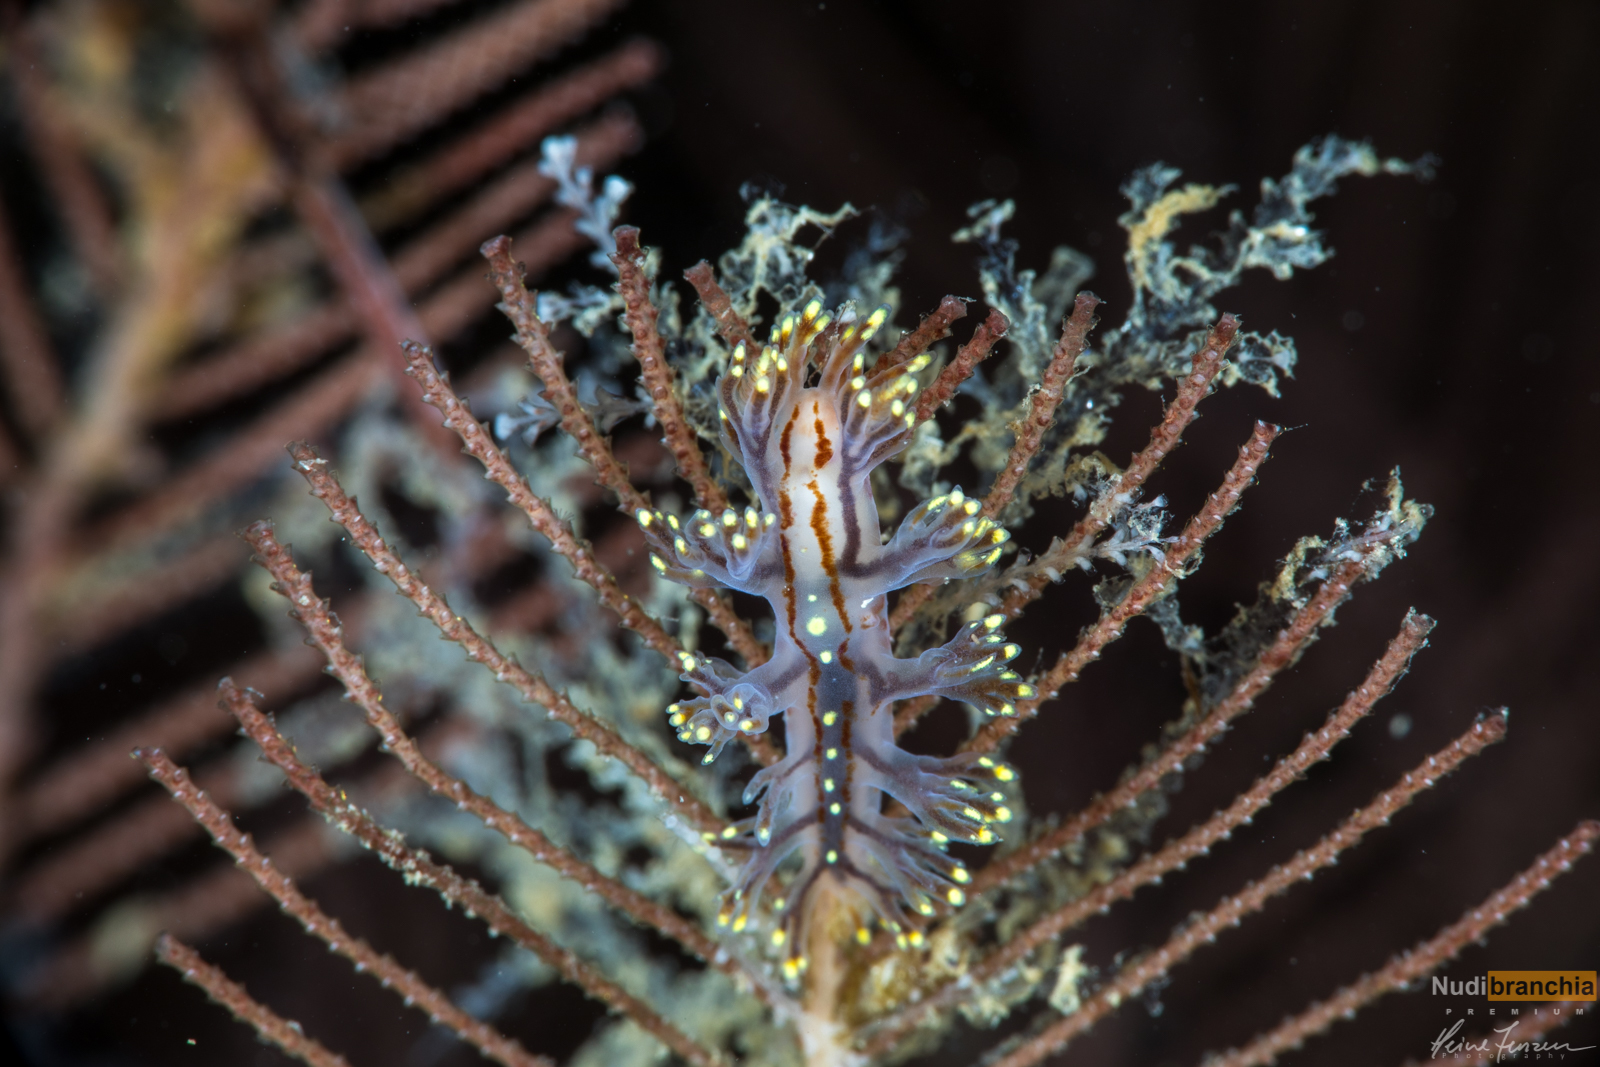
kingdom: Animalia
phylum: Mollusca
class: Gastropoda
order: Nudibranchia
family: Dendronotidae
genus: Dendronotus
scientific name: Dendronotus yrjargul
